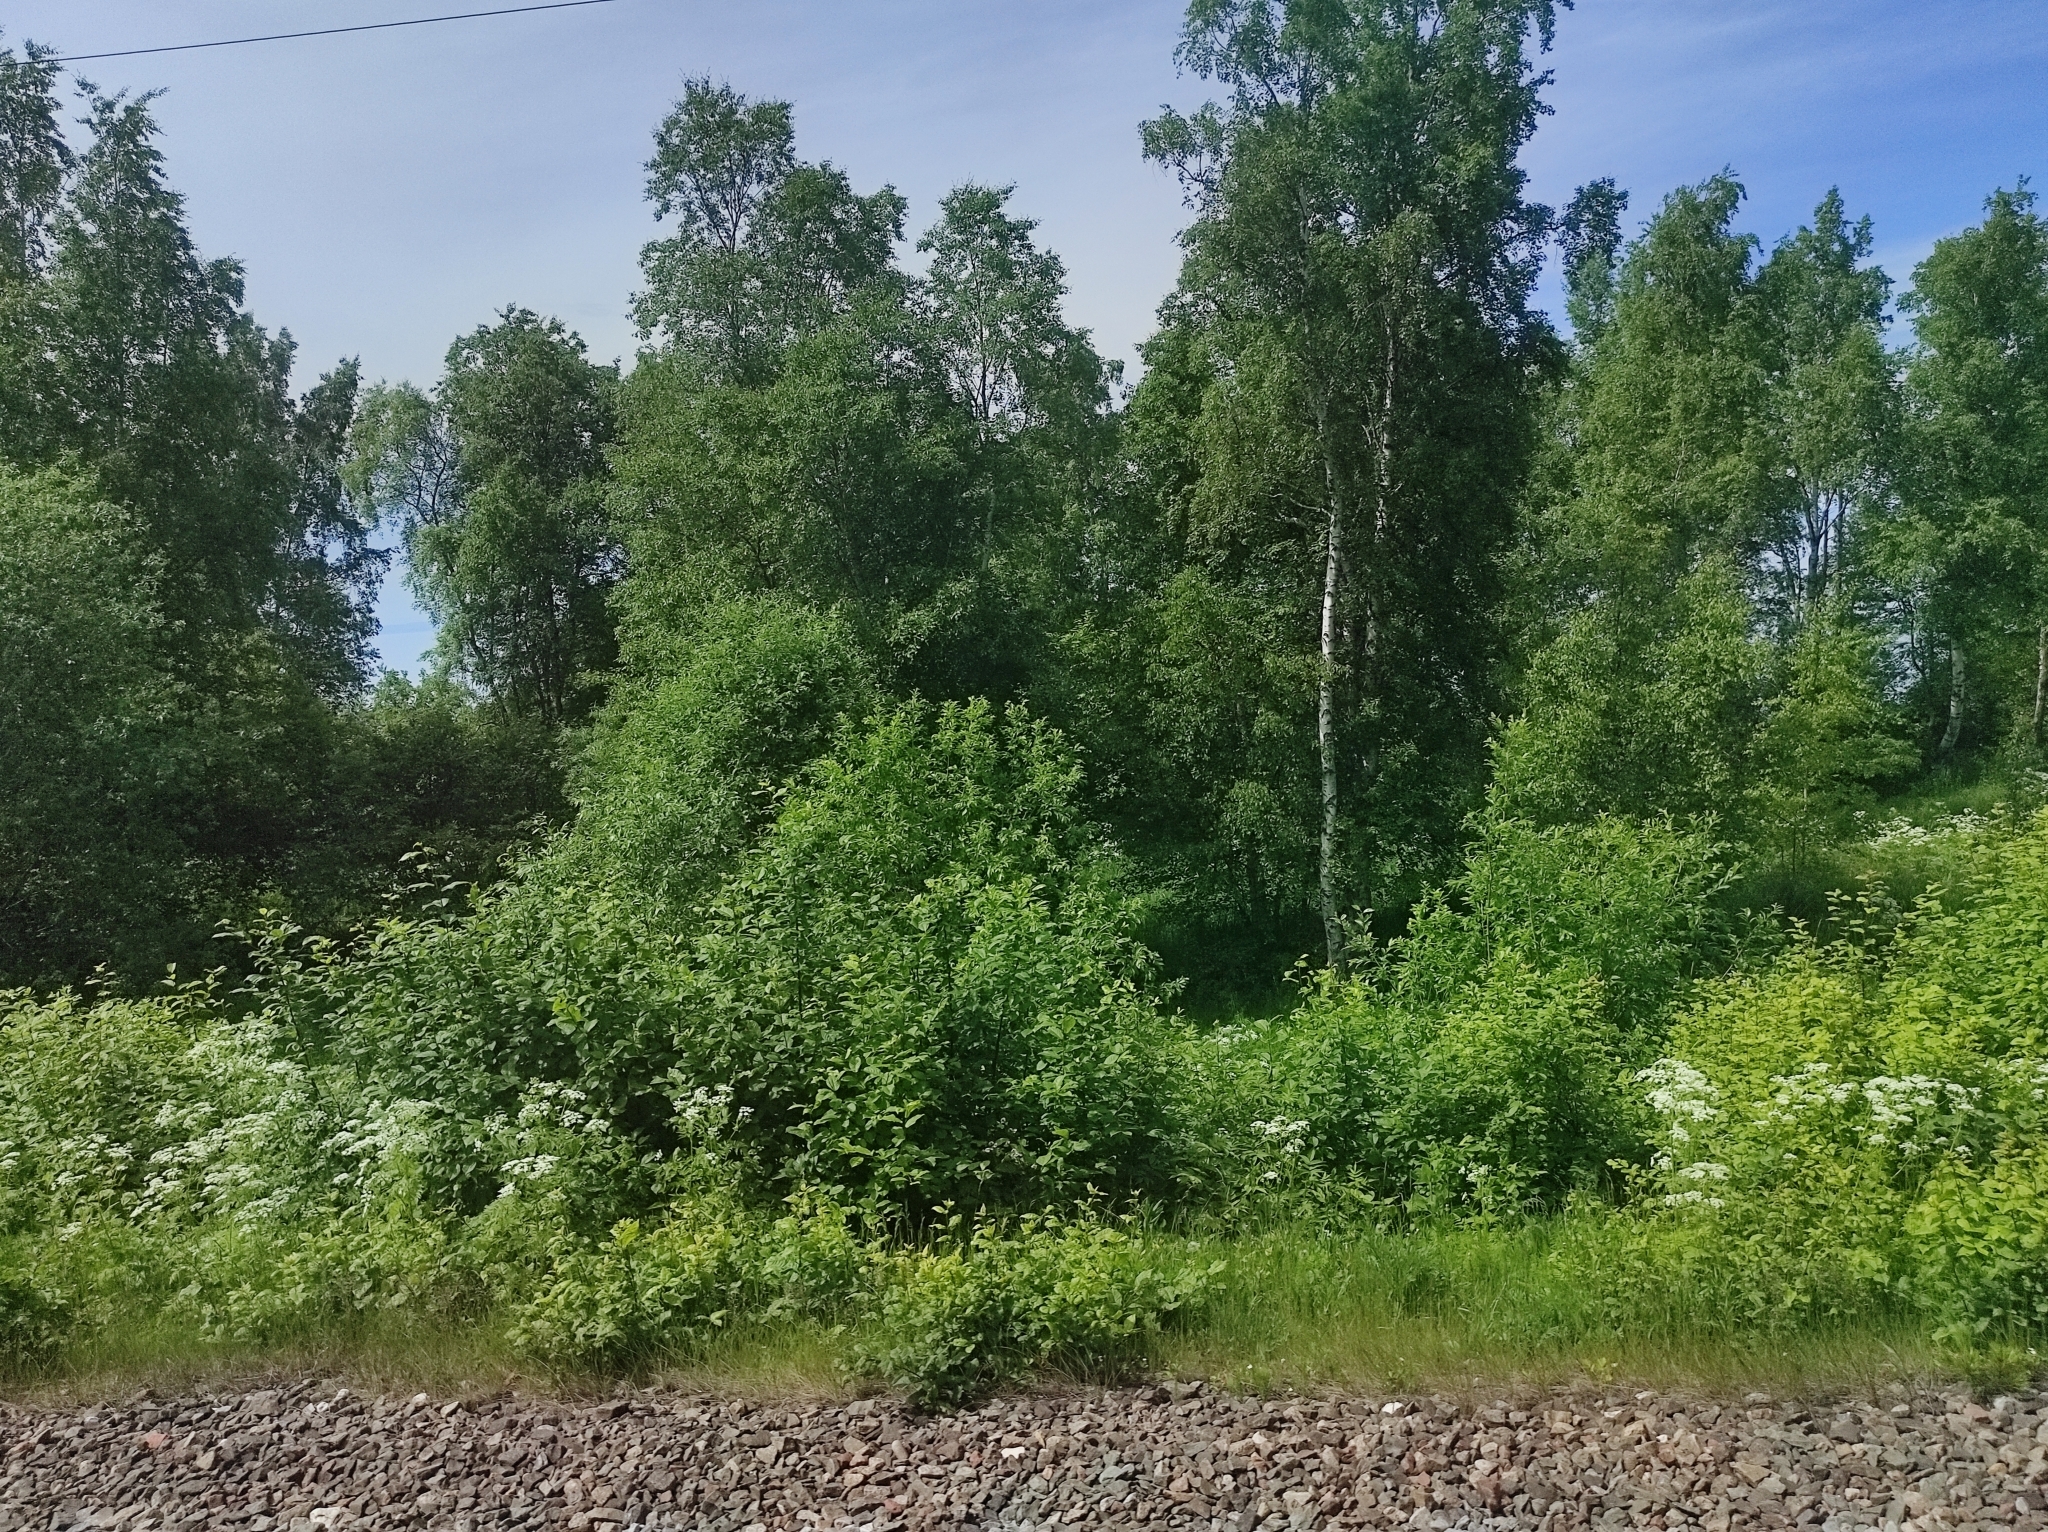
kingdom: Plantae
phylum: Tracheophyta
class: Magnoliopsida
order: Apiales
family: Apiaceae
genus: Anthriscus
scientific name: Anthriscus sylvestris
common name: Cow parsley
